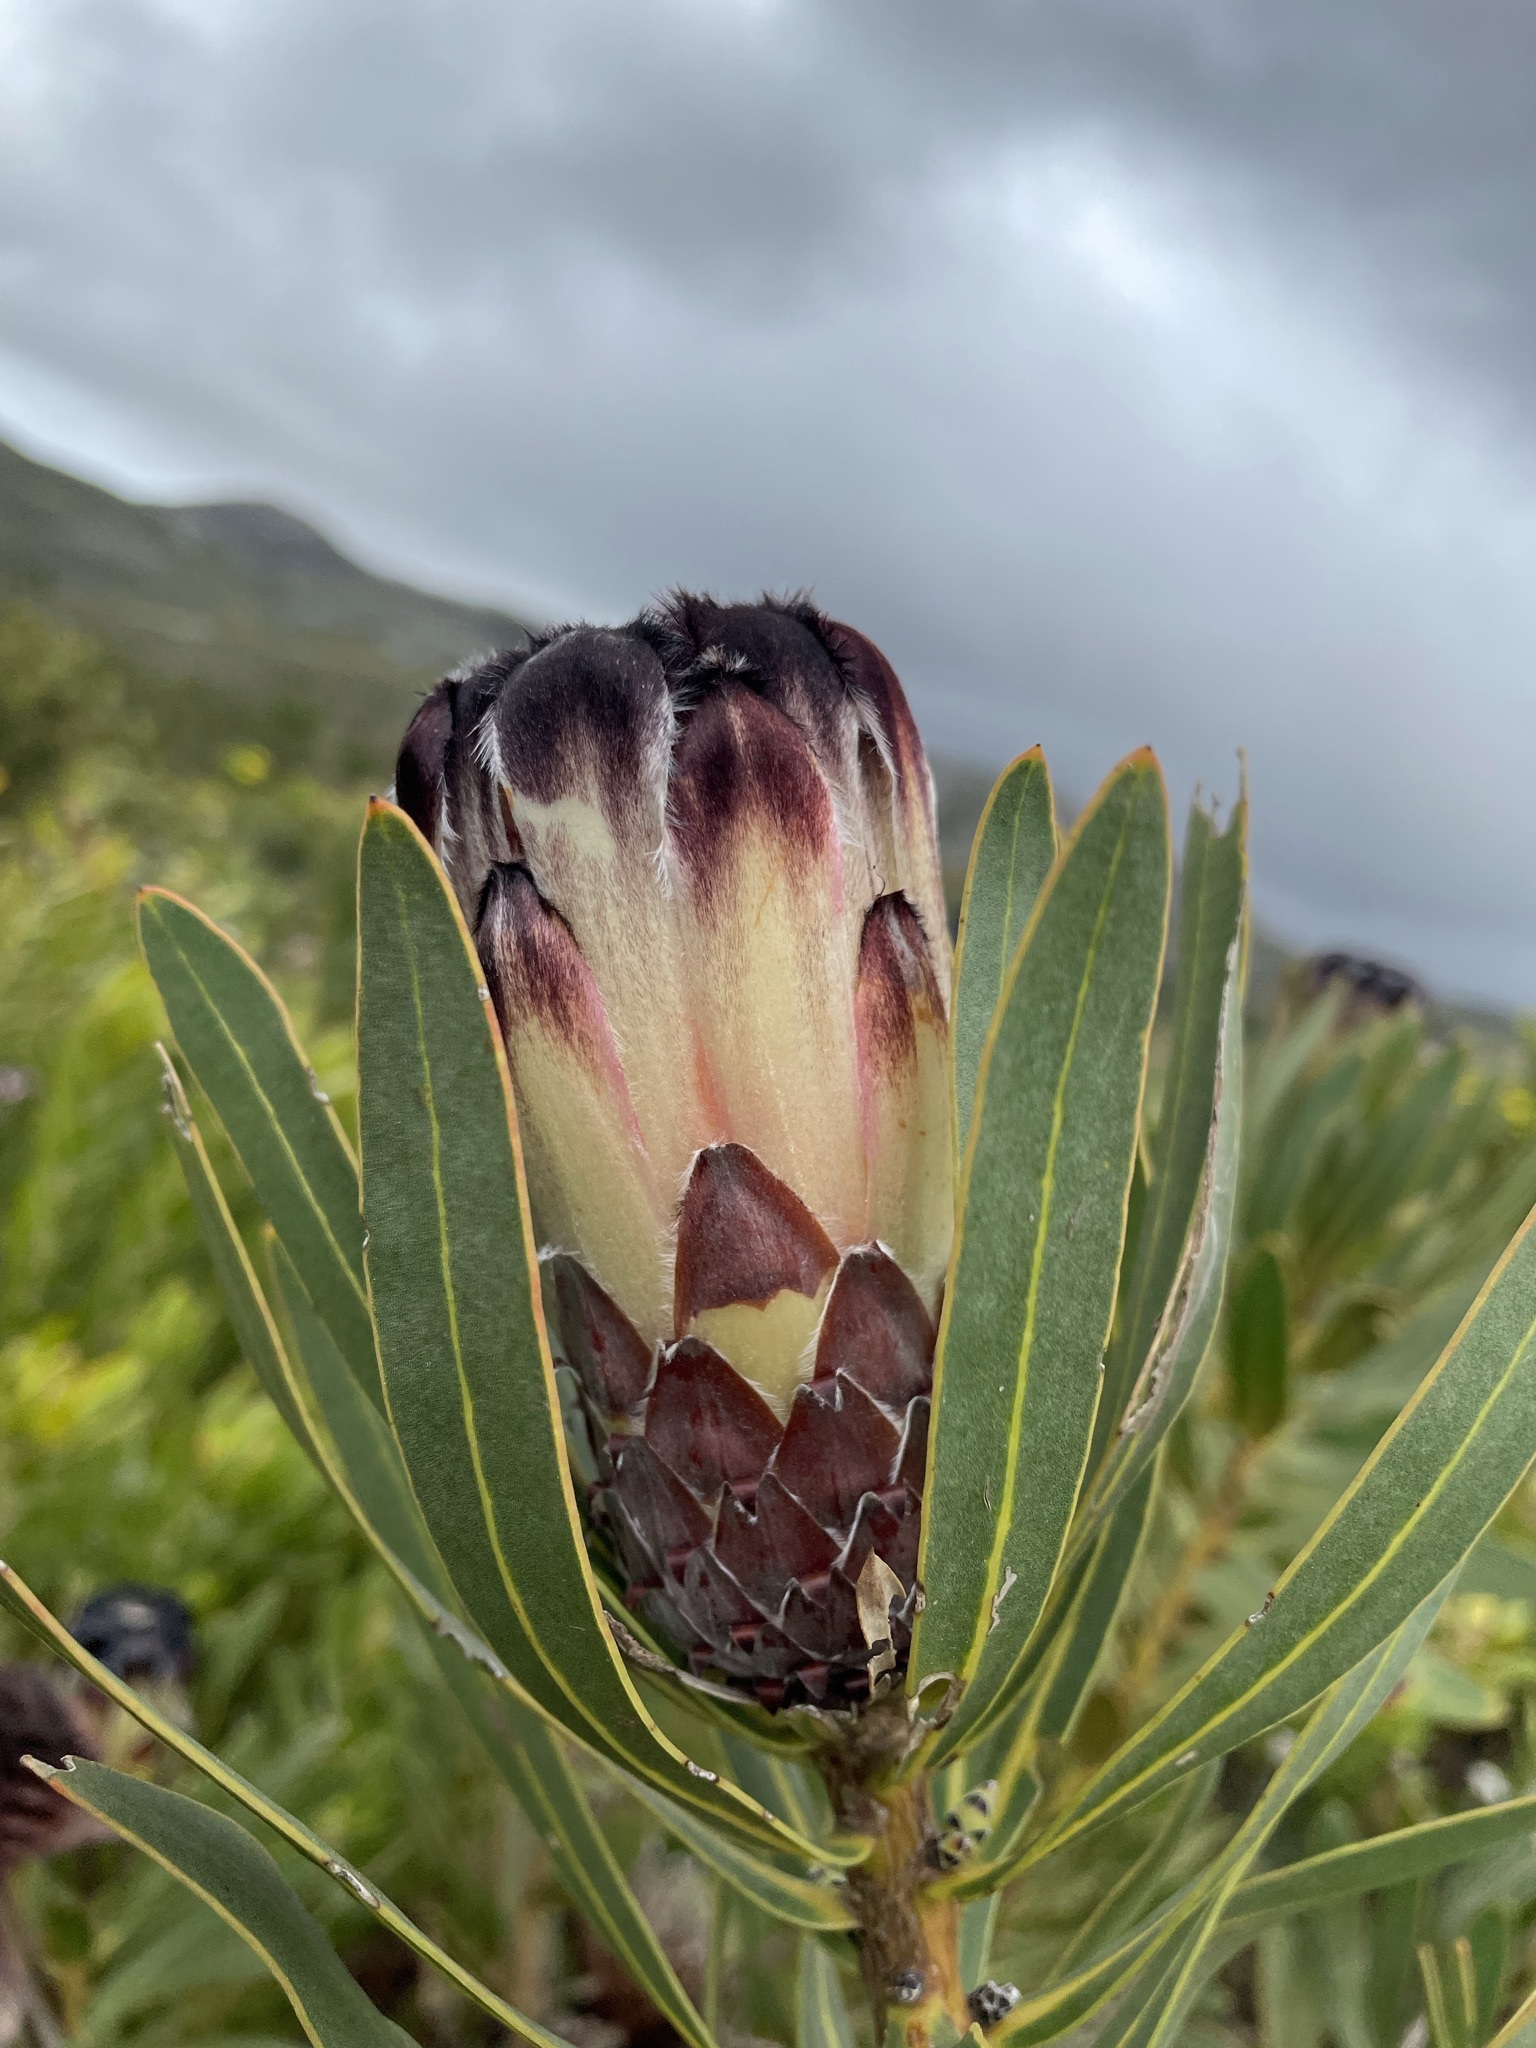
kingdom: Plantae
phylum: Tracheophyta
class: Magnoliopsida
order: Proteales
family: Proteaceae
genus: Protea
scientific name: Protea lepidocarpodendron
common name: Black-bearded protea
